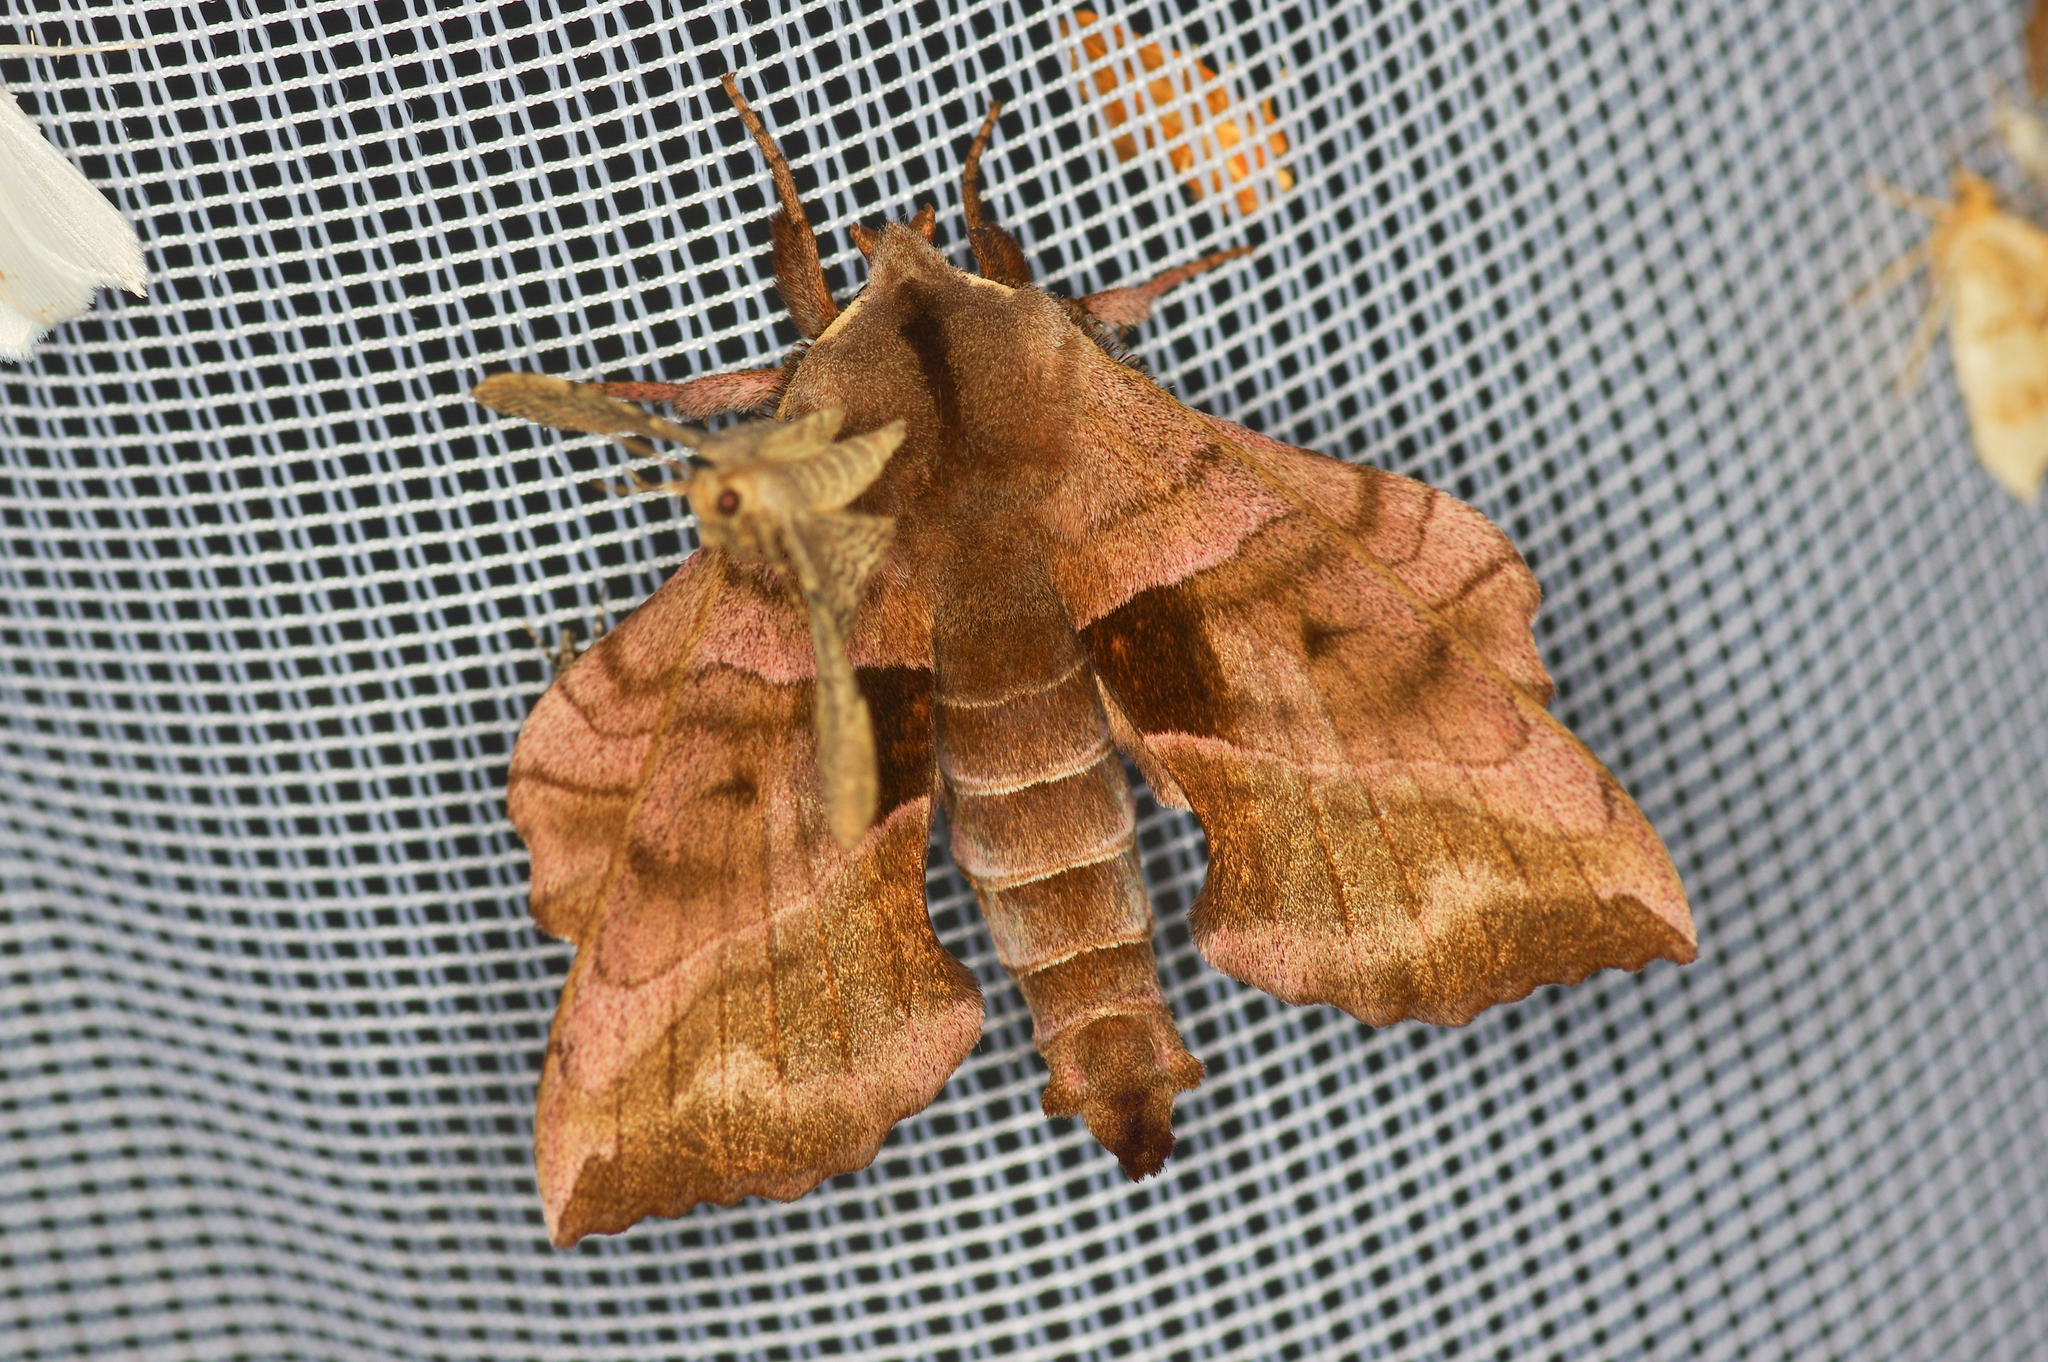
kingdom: Animalia
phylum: Arthropoda
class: Insecta
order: Lepidoptera
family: Sphingidae
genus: Amorpha
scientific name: Amorpha juglandis
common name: Walnut sphinx
